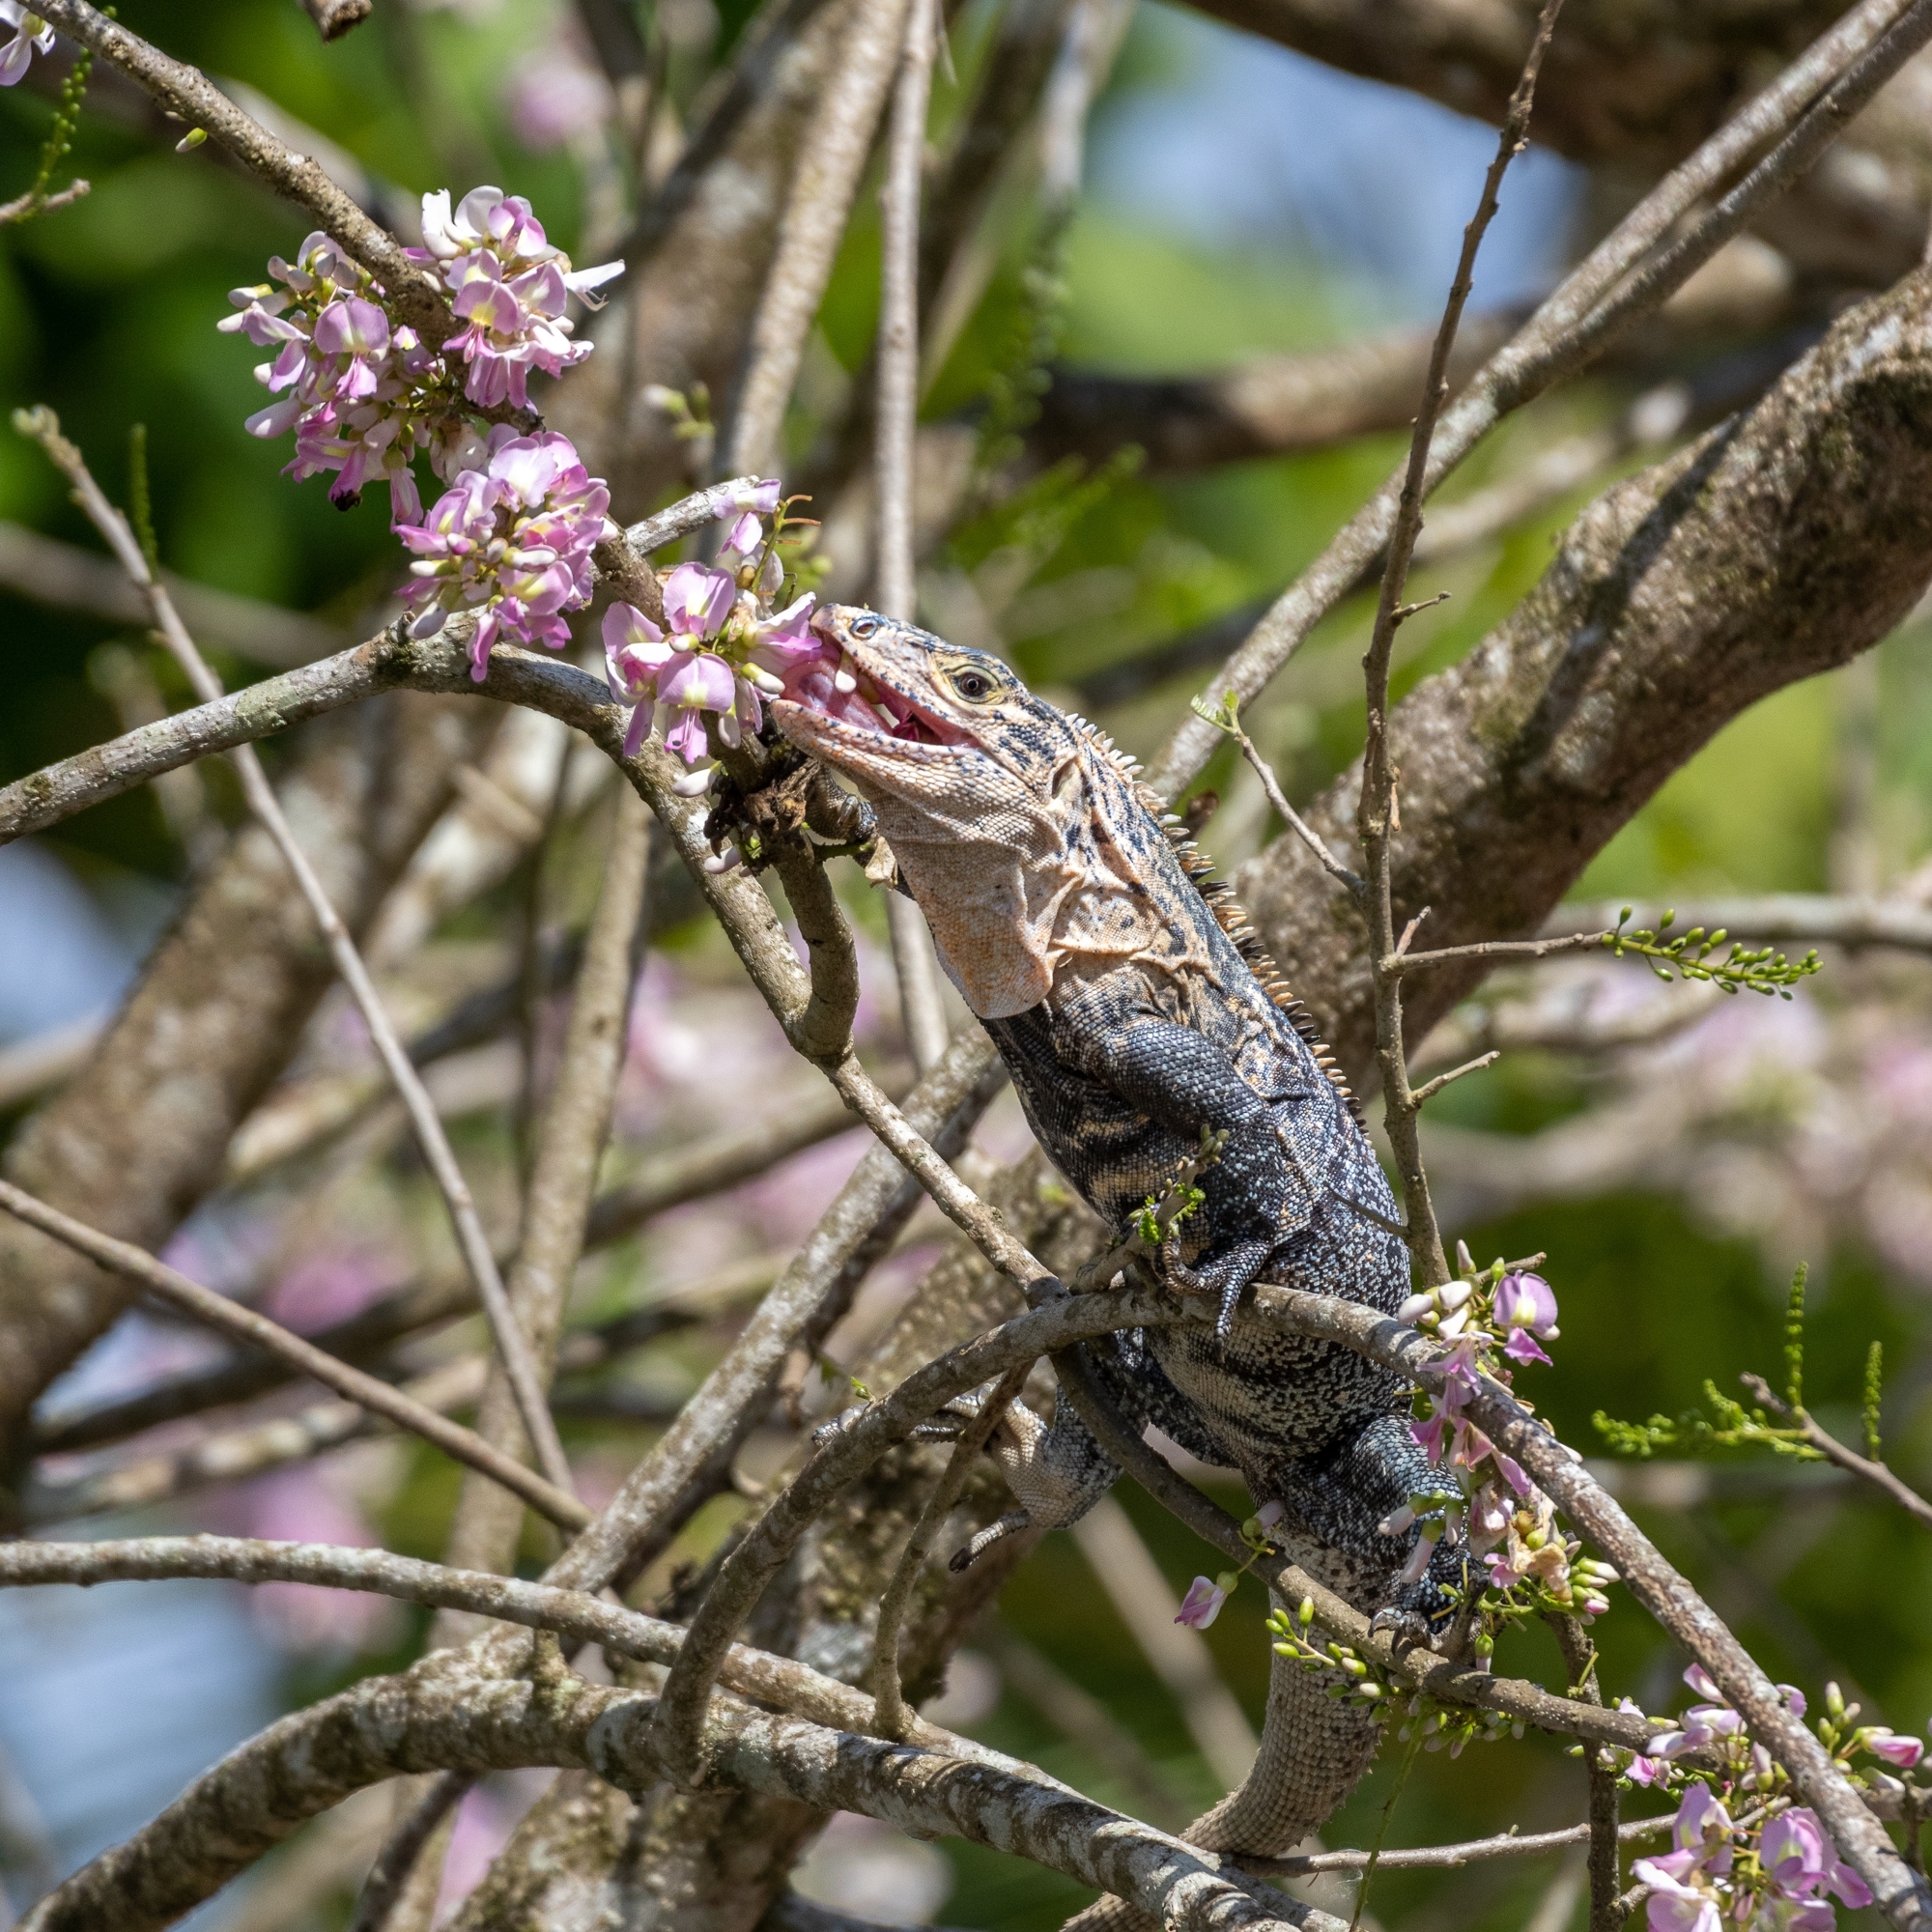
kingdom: Animalia
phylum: Chordata
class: Squamata
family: Iguanidae
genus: Ctenosaura
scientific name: Ctenosaura similis
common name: Black spiny-tailed iguana
